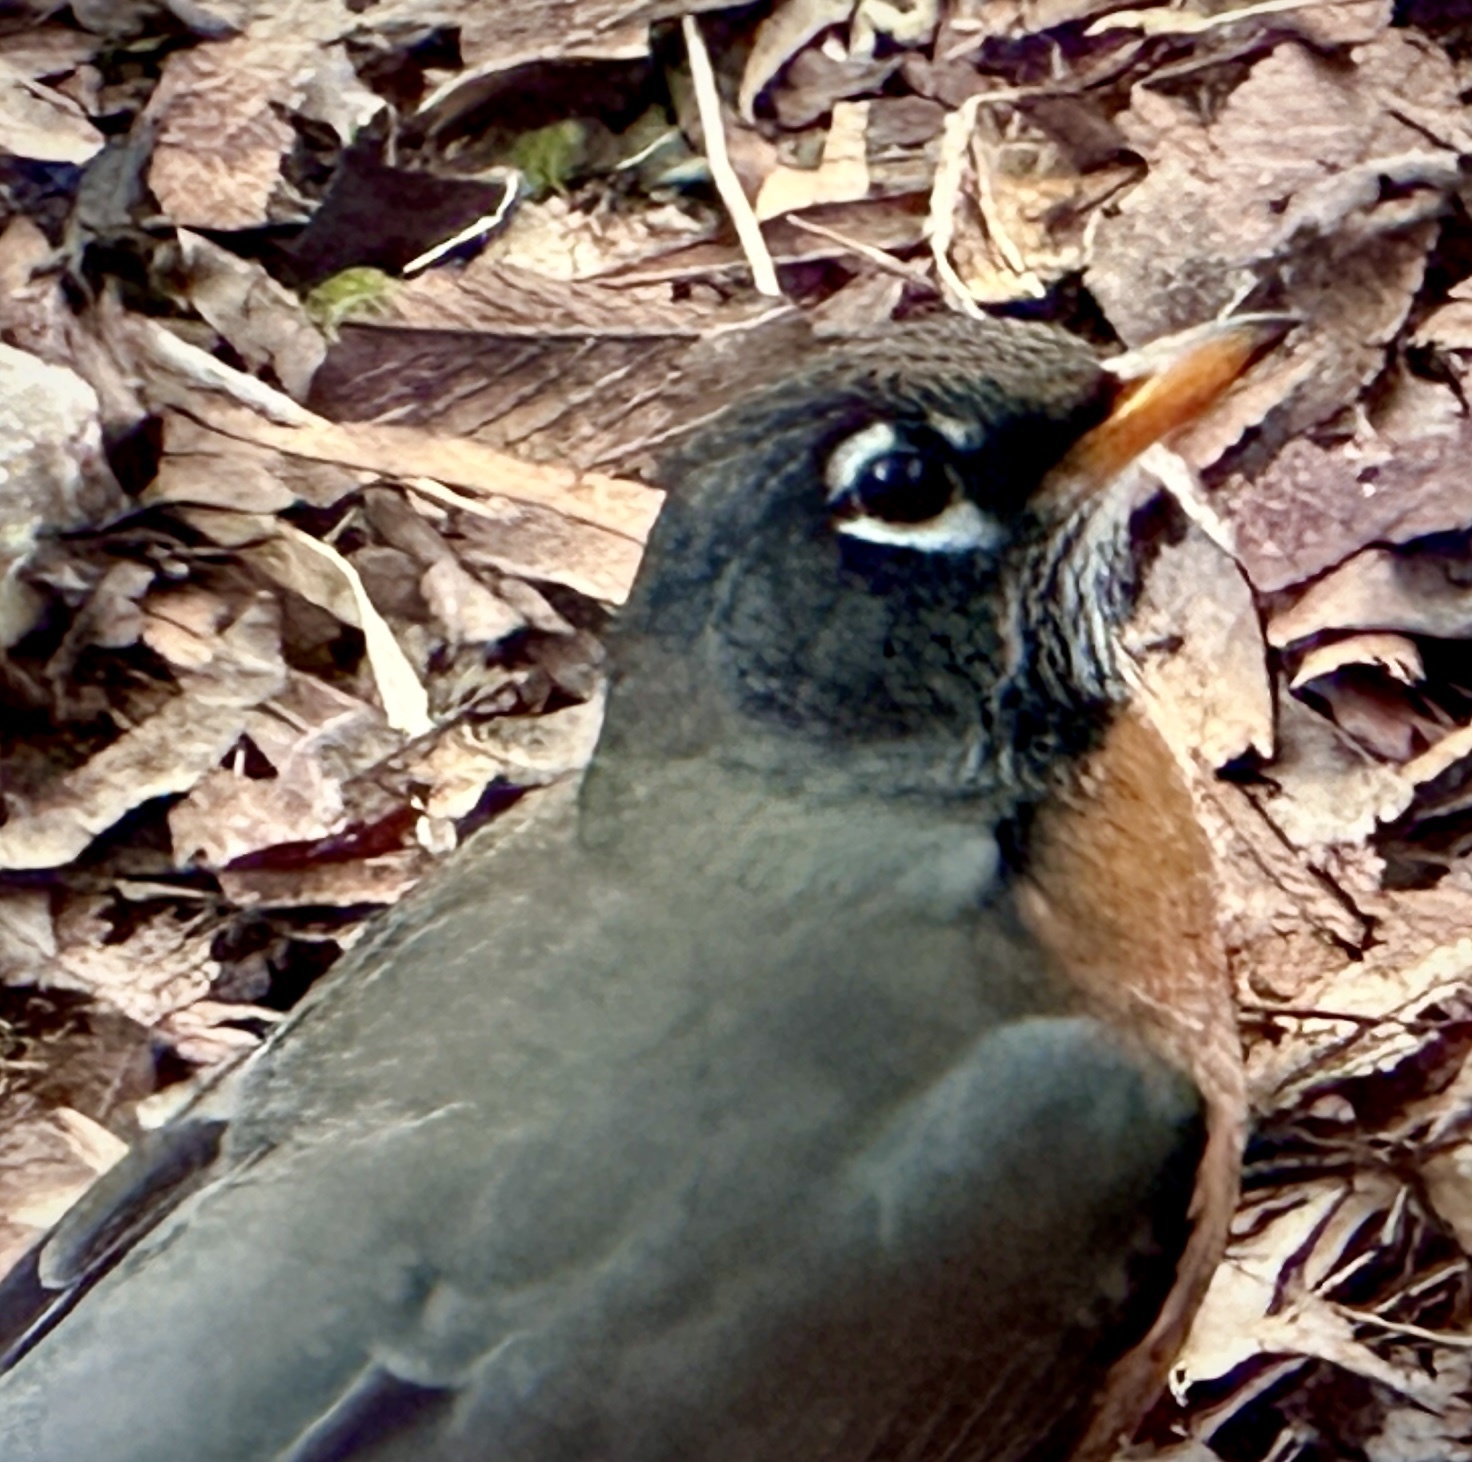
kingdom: Animalia
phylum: Chordata
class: Aves
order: Passeriformes
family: Turdidae
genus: Turdus
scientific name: Turdus migratorius
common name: American robin
